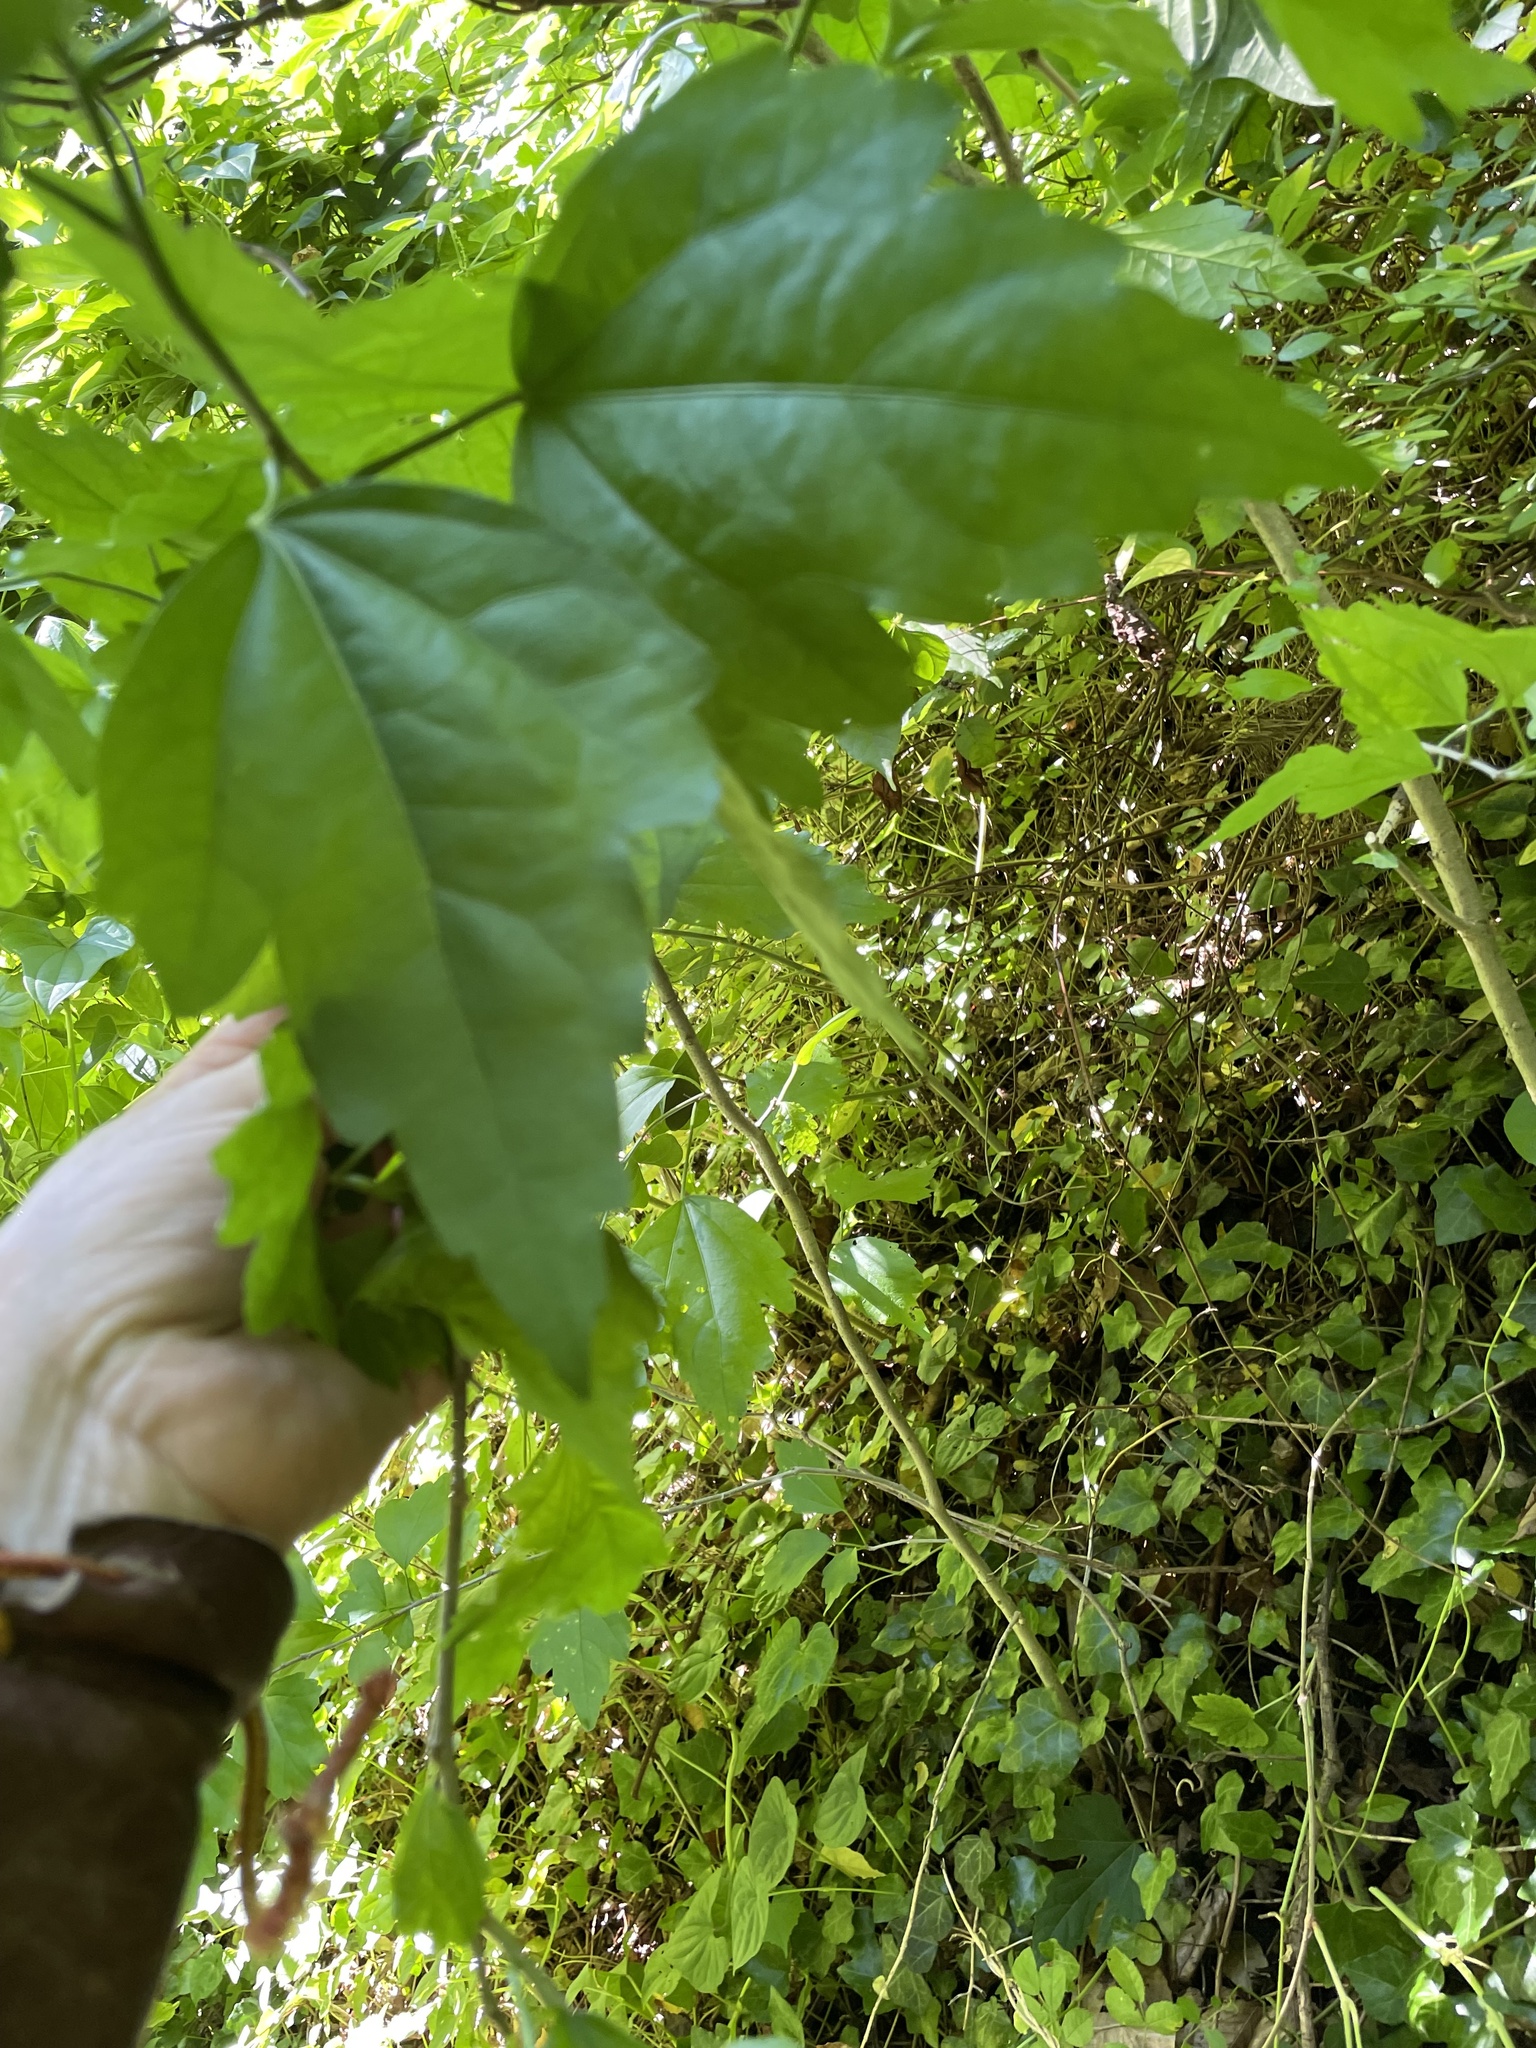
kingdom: Plantae
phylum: Tracheophyta
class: Magnoliopsida
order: Malvales
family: Malvaceae
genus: Hibiscus
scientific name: Hibiscus syriacus
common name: Syrian ketmia
